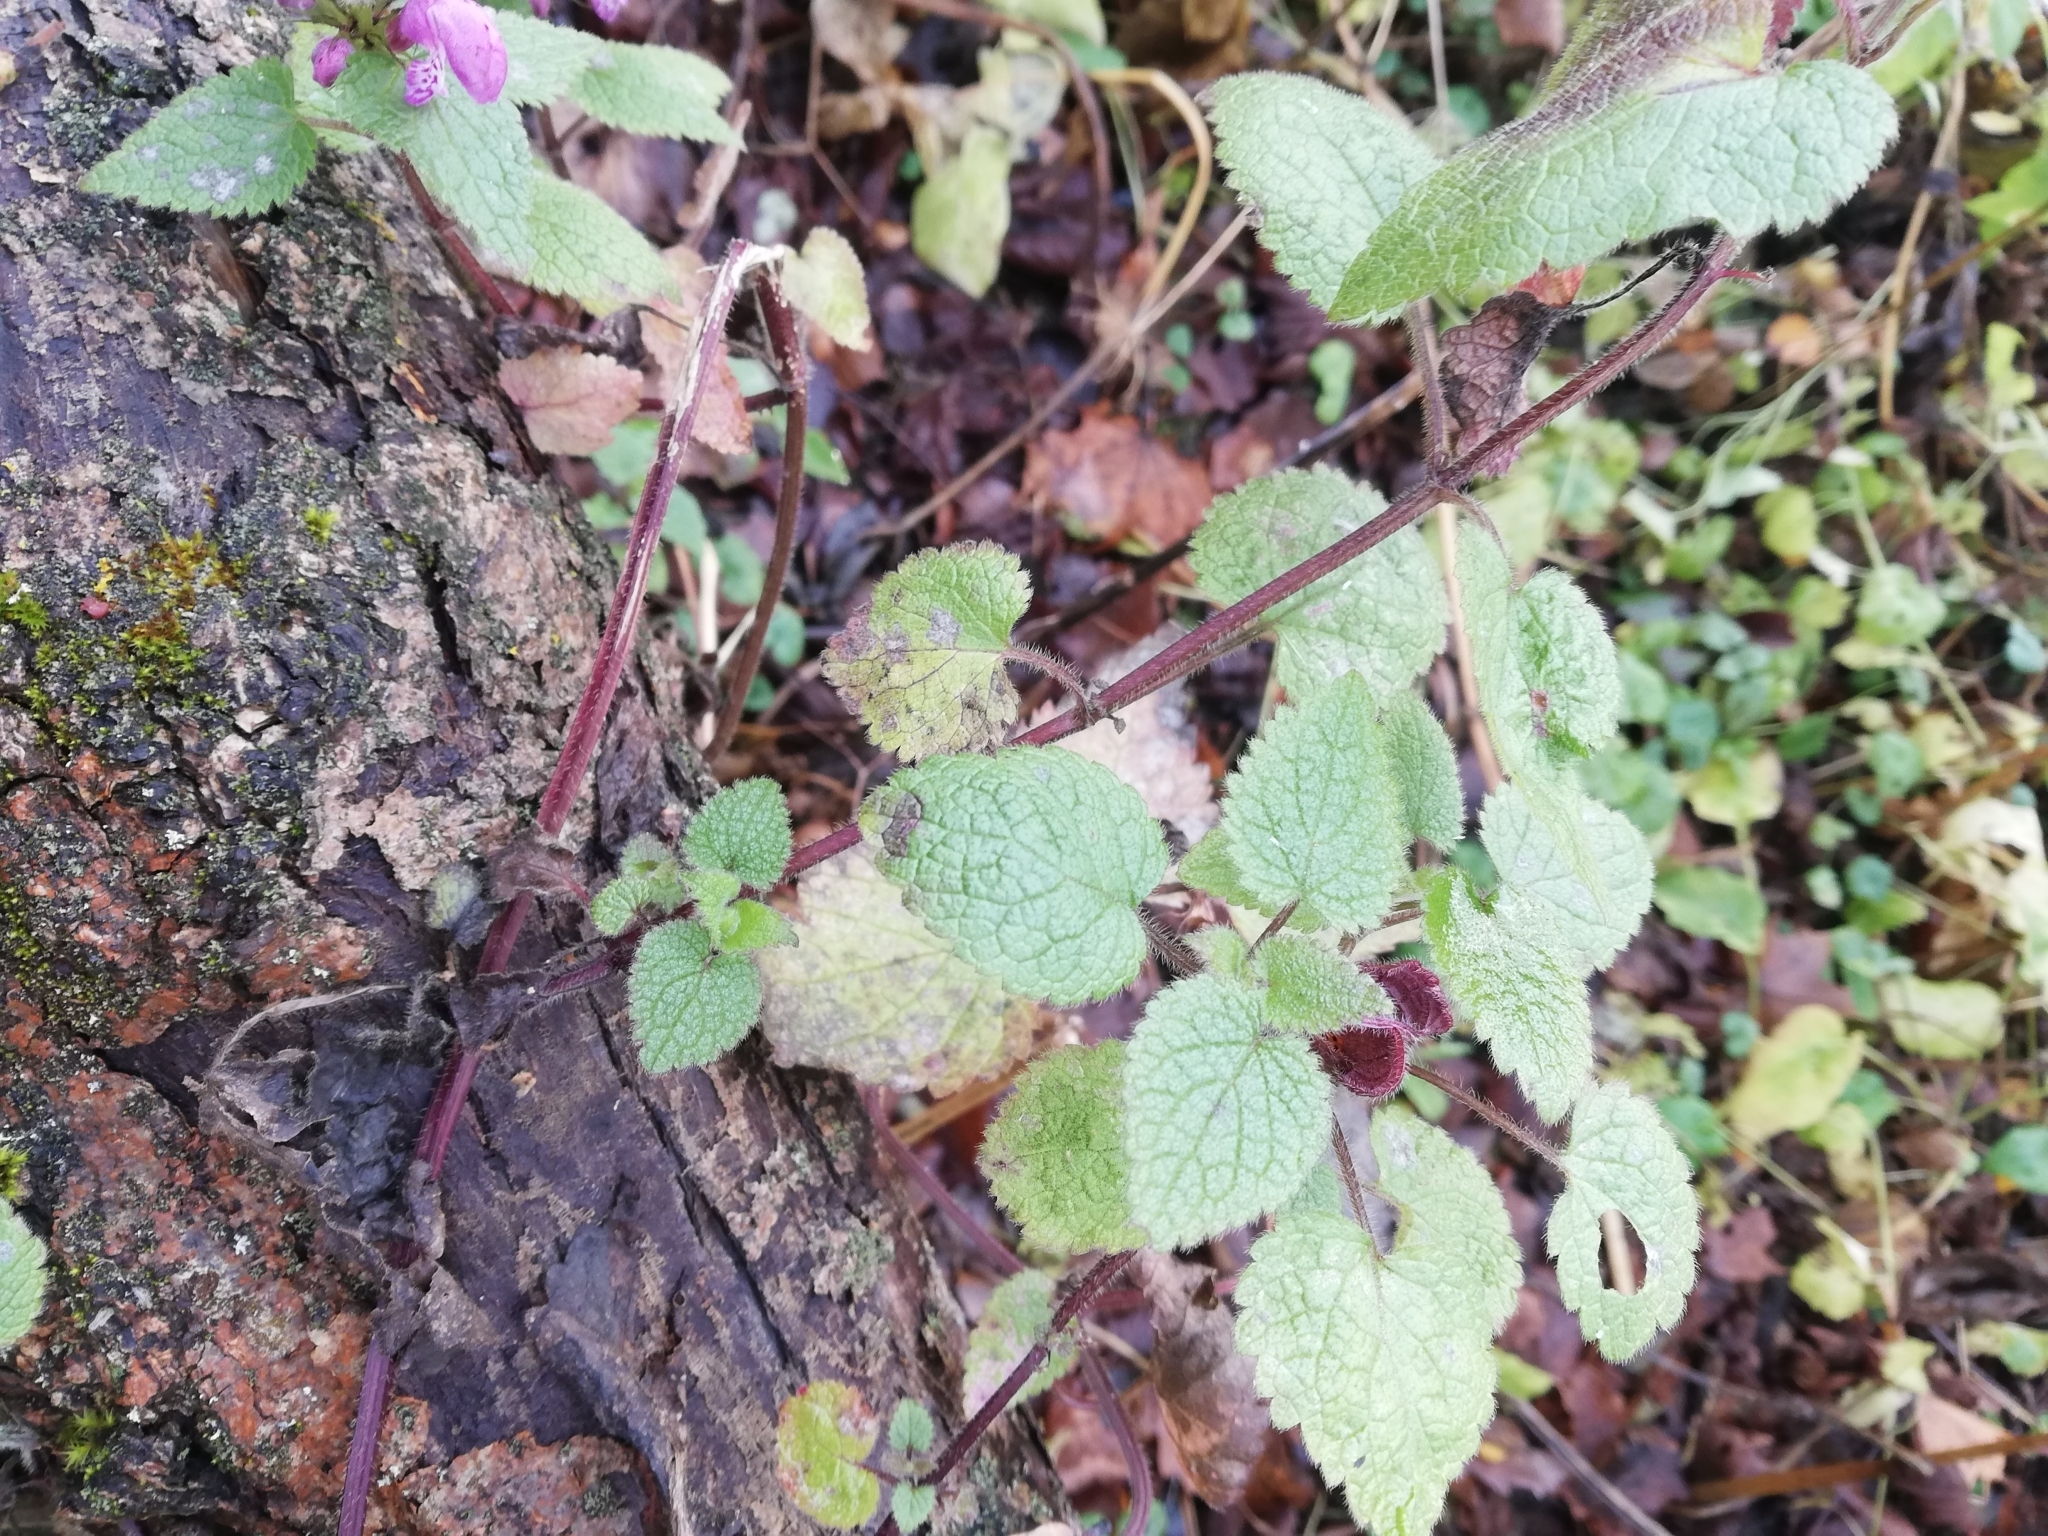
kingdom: Plantae
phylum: Tracheophyta
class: Magnoliopsida
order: Lamiales
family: Lamiaceae
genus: Lamium
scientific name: Lamium maculatum
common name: Spotted dead-nettle
